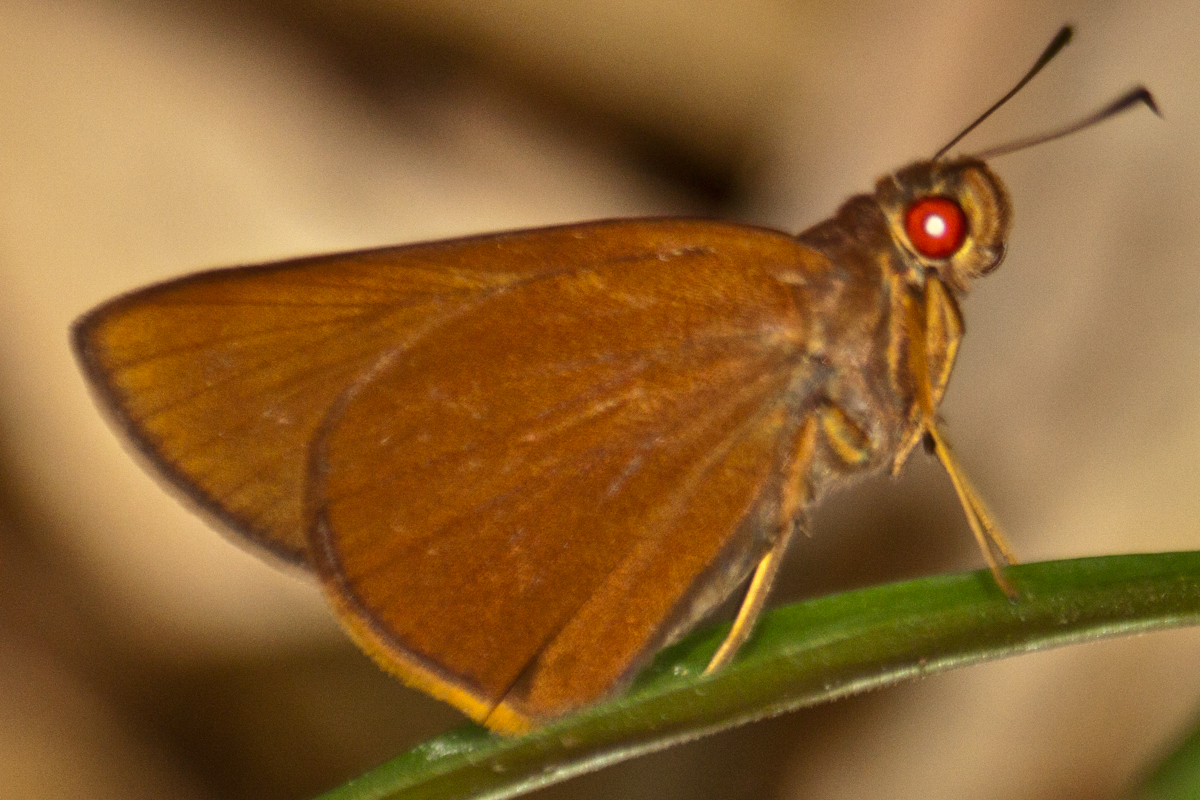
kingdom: Animalia
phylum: Arthropoda
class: Insecta
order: Lepidoptera
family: Hesperiidae
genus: Matapa
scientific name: Matapa druna
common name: Grey-brand redeye
